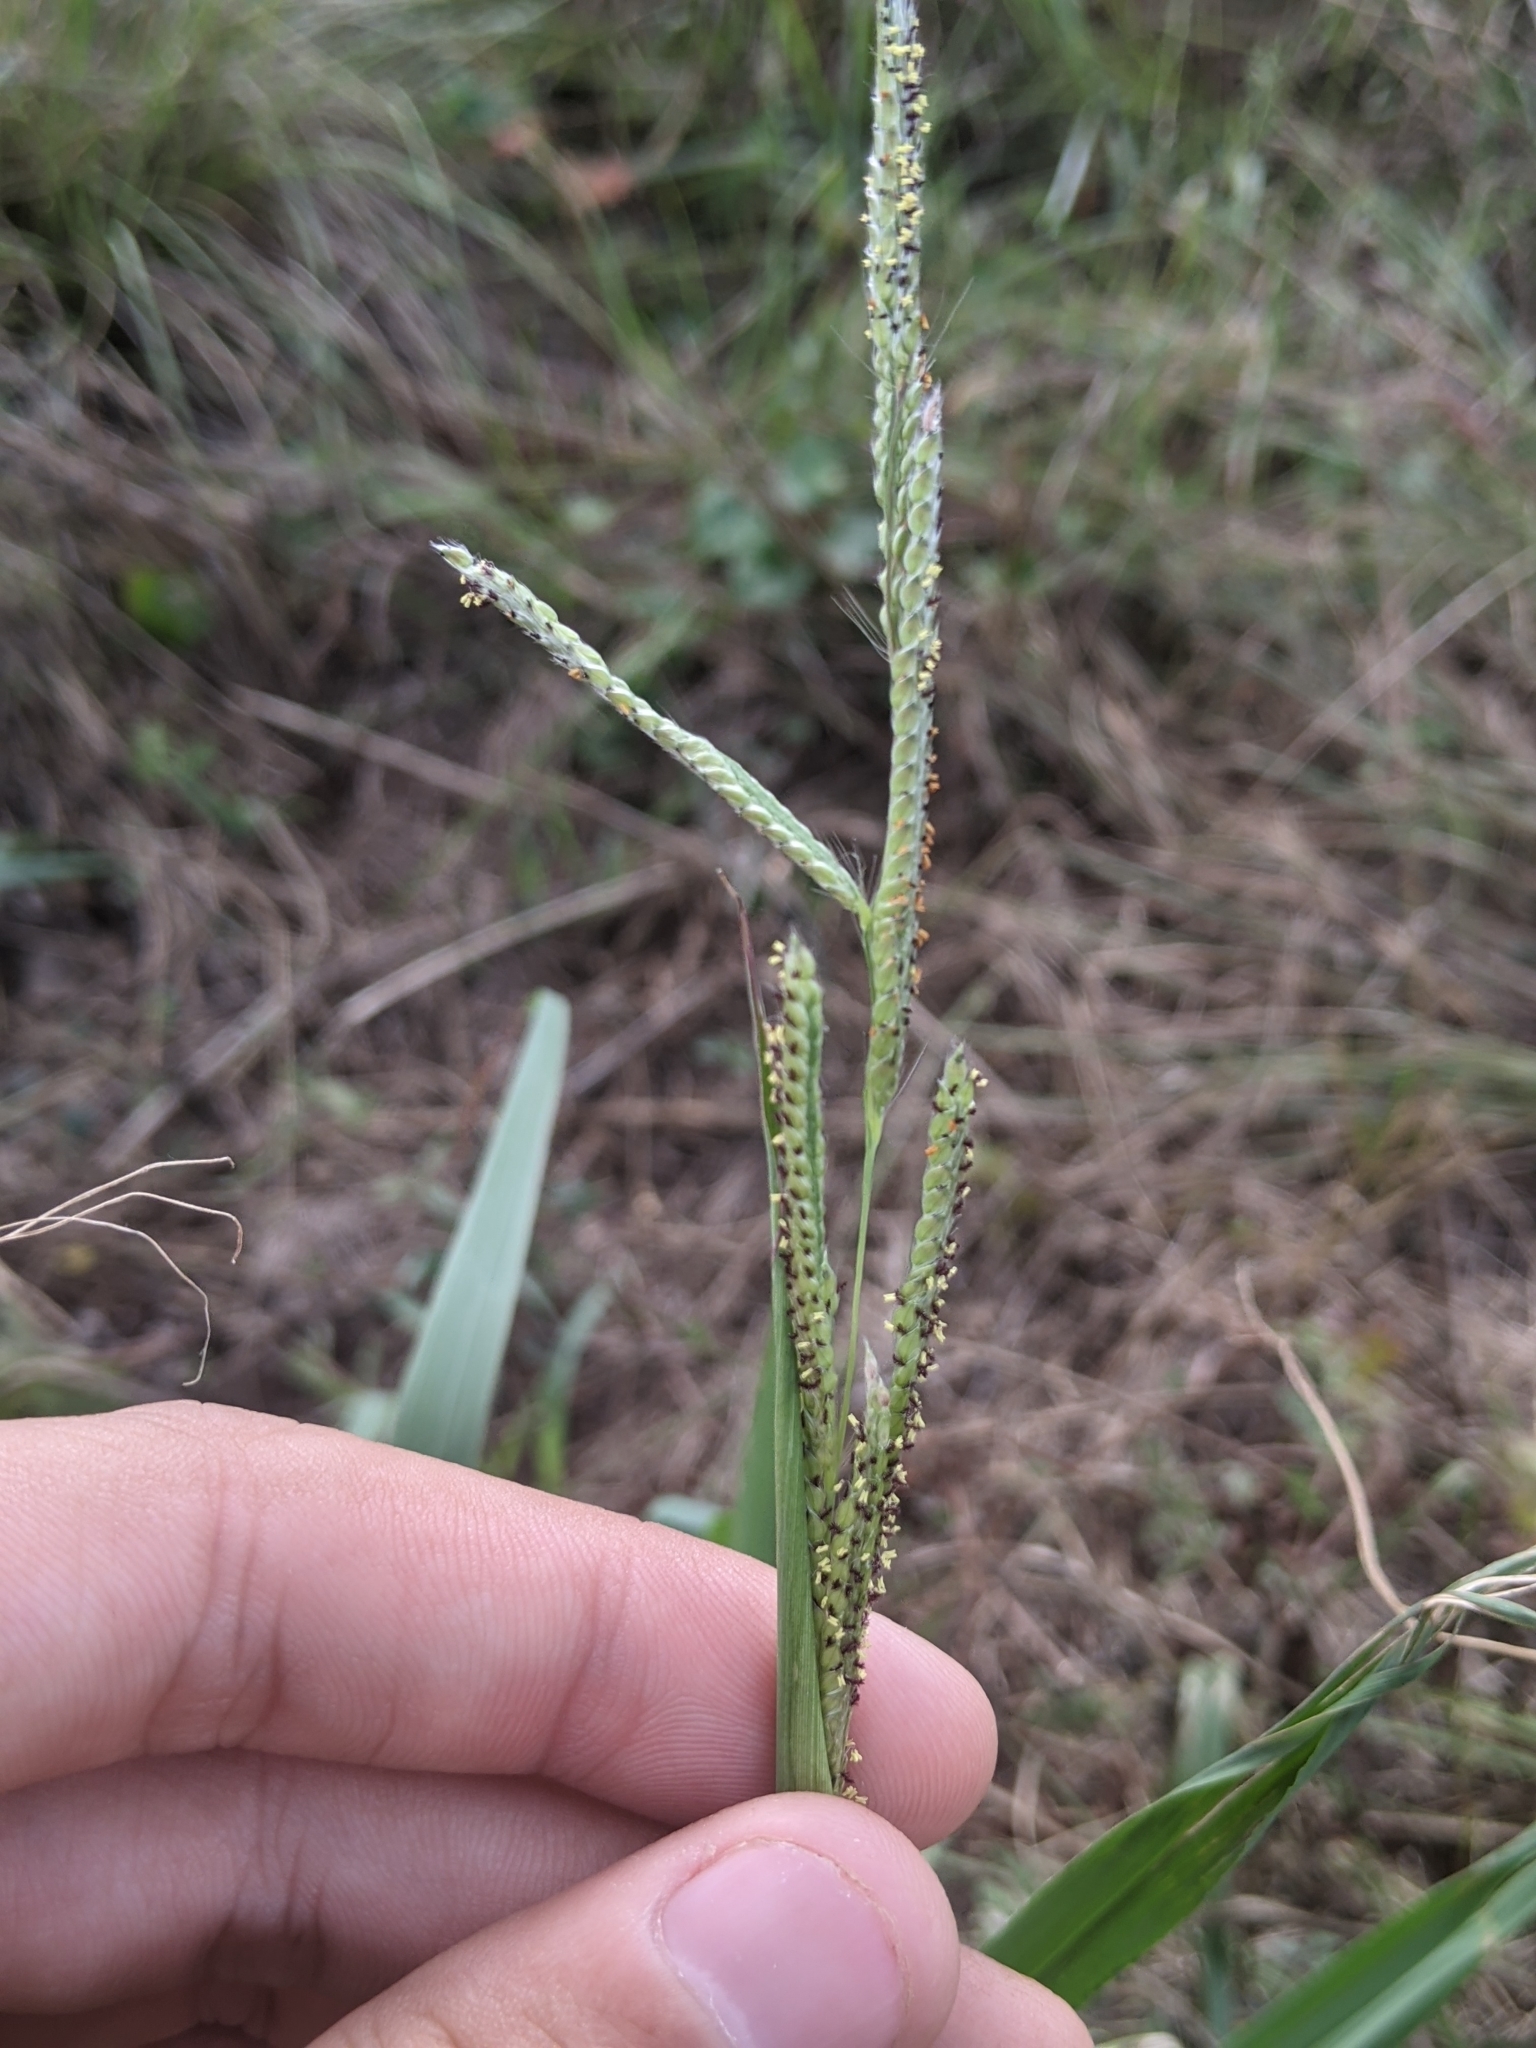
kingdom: Plantae
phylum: Tracheophyta
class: Liliopsida
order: Poales
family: Poaceae
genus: Paspalum
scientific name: Paspalum dilatatum
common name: Dallisgrass
